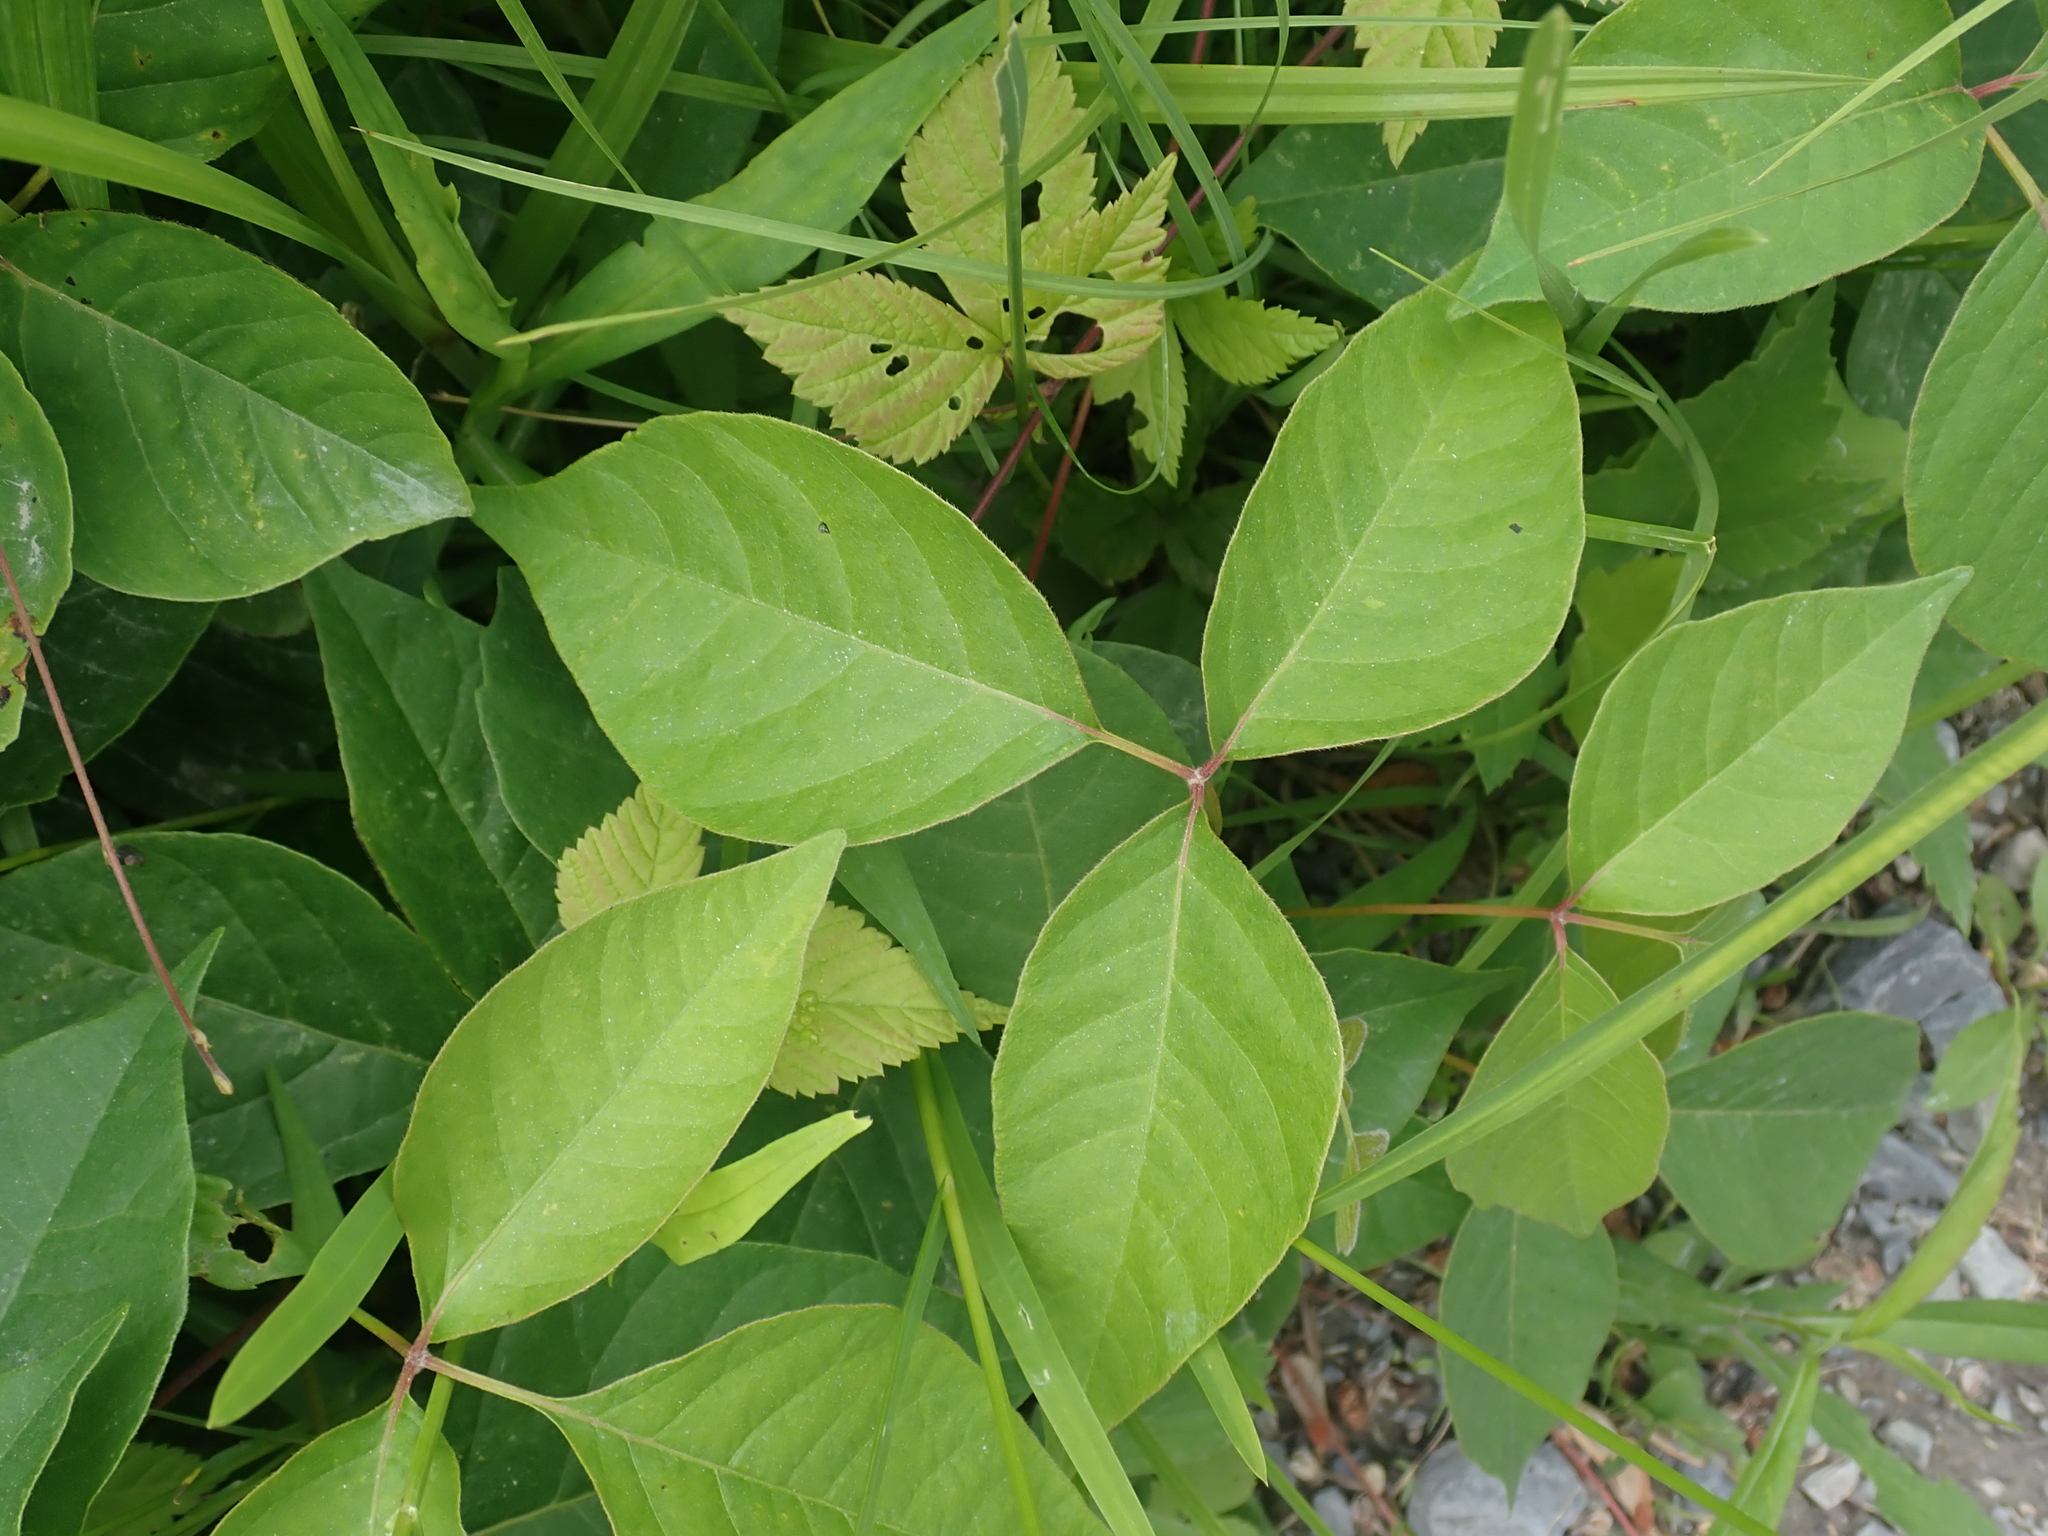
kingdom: Plantae
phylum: Tracheophyta
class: Magnoliopsida
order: Sapindales
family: Anacardiaceae
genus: Toxicodendron
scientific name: Toxicodendron radicans
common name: Poison ivy
